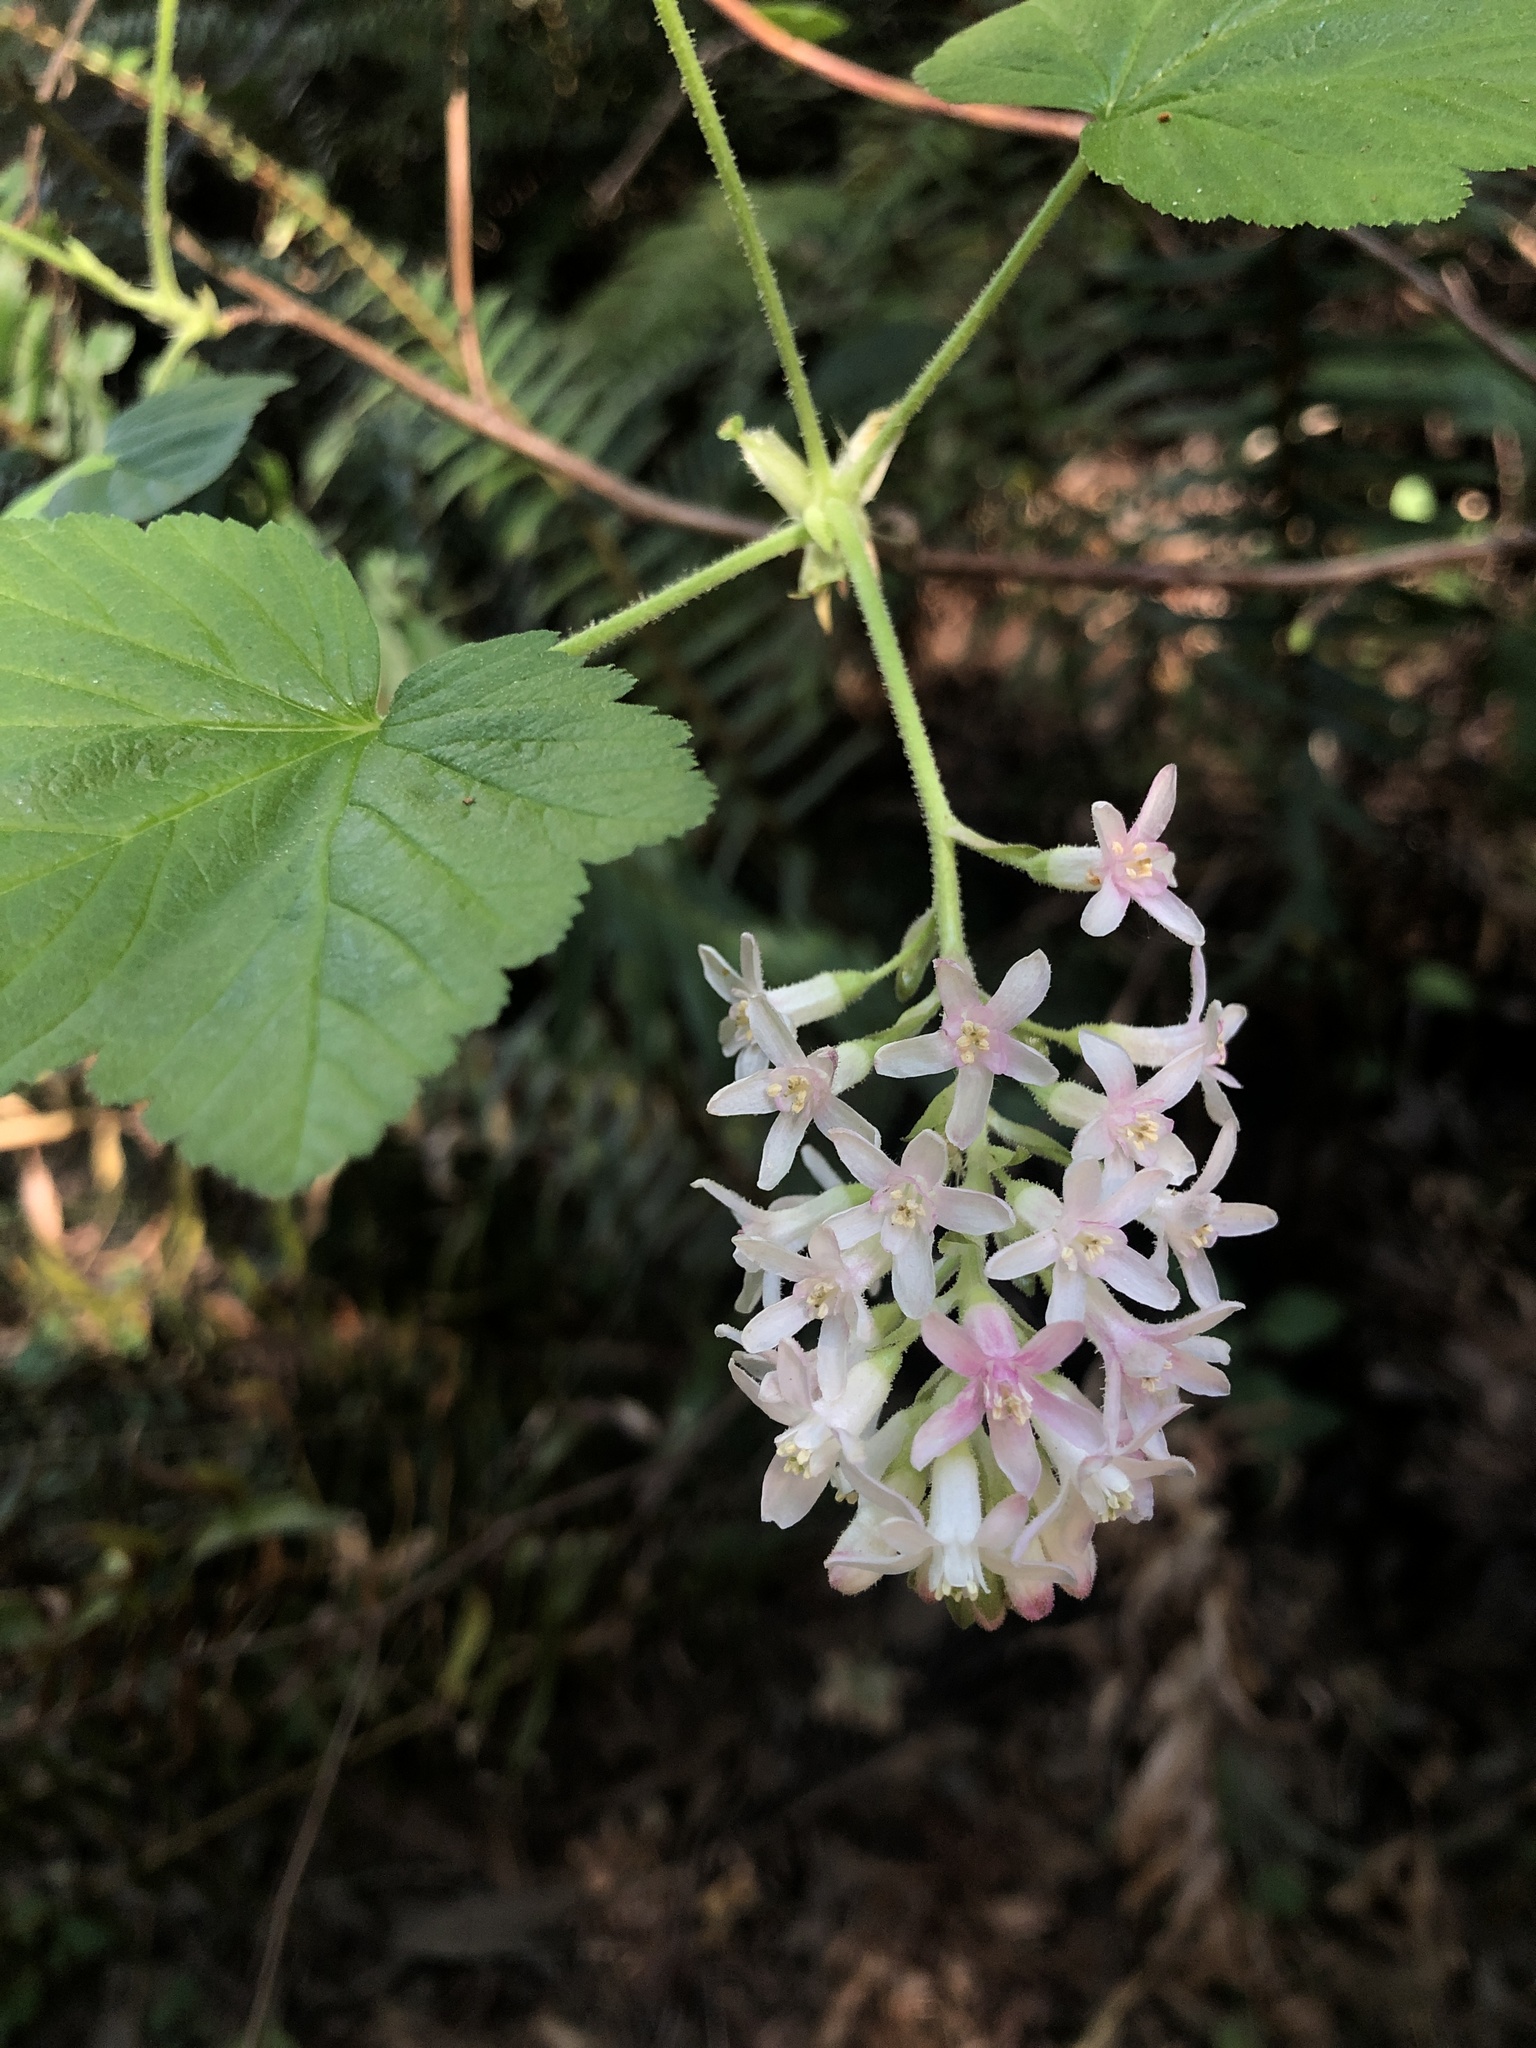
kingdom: Plantae
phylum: Tracheophyta
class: Magnoliopsida
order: Saxifragales
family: Grossulariaceae
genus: Ribes
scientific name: Ribes sanguineum
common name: Flowering currant
